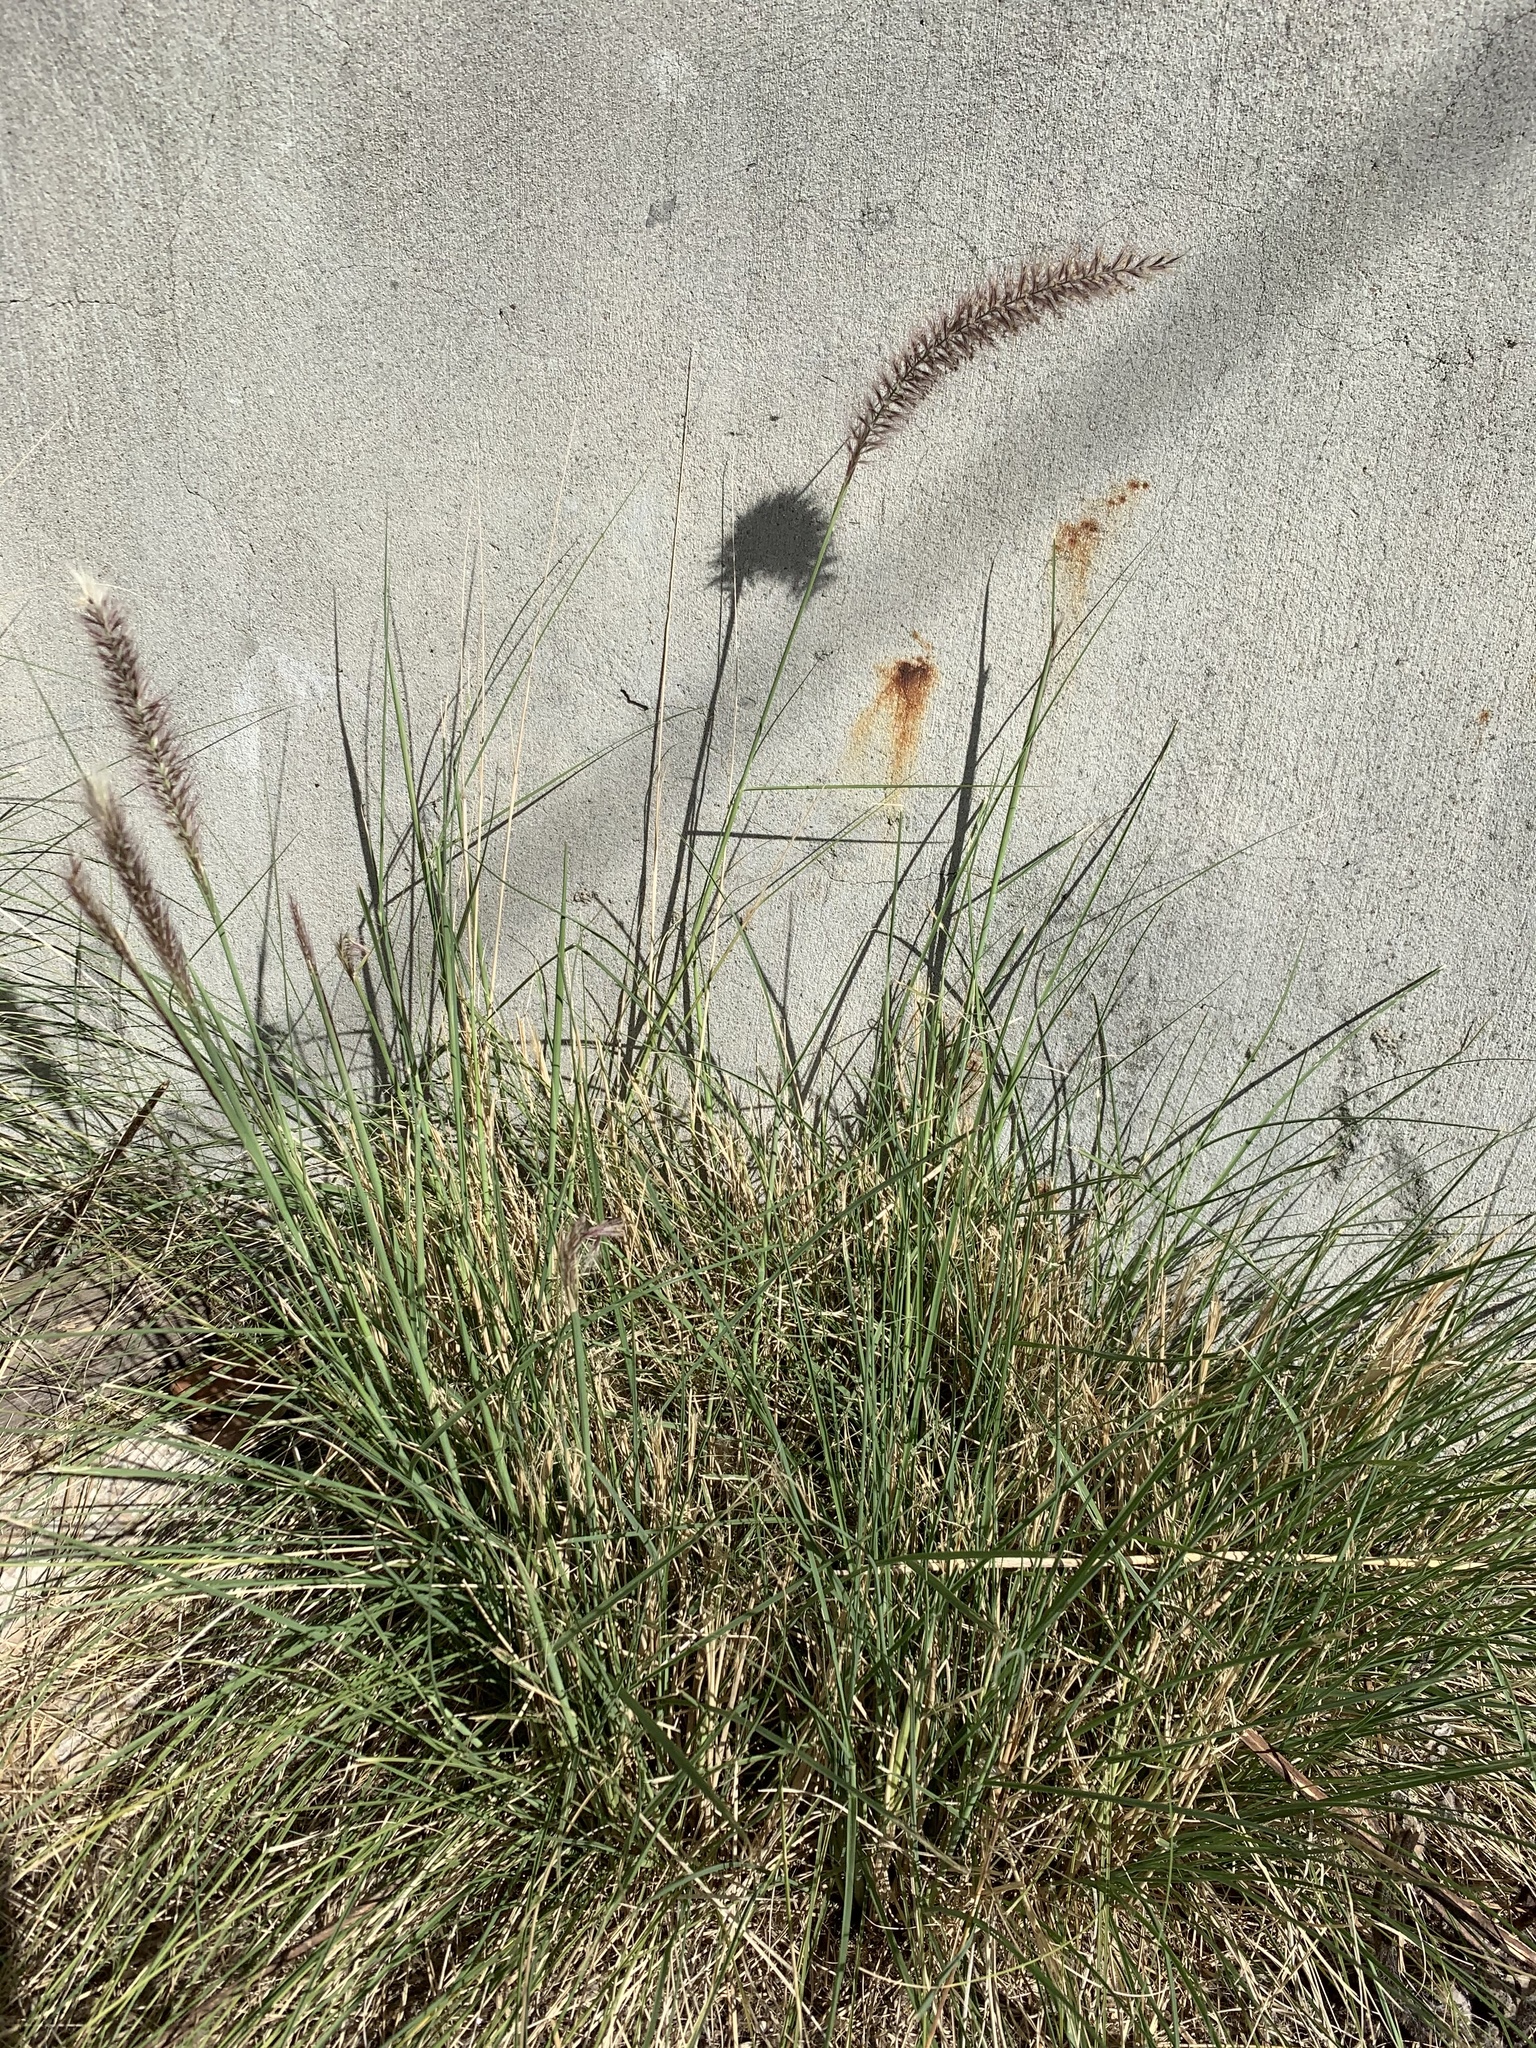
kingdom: Plantae
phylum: Tracheophyta
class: Liliopsida
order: Poales
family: Poaceae
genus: Cenchrus
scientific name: Cenchrus setaceus
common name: Crimson fountaingrass
